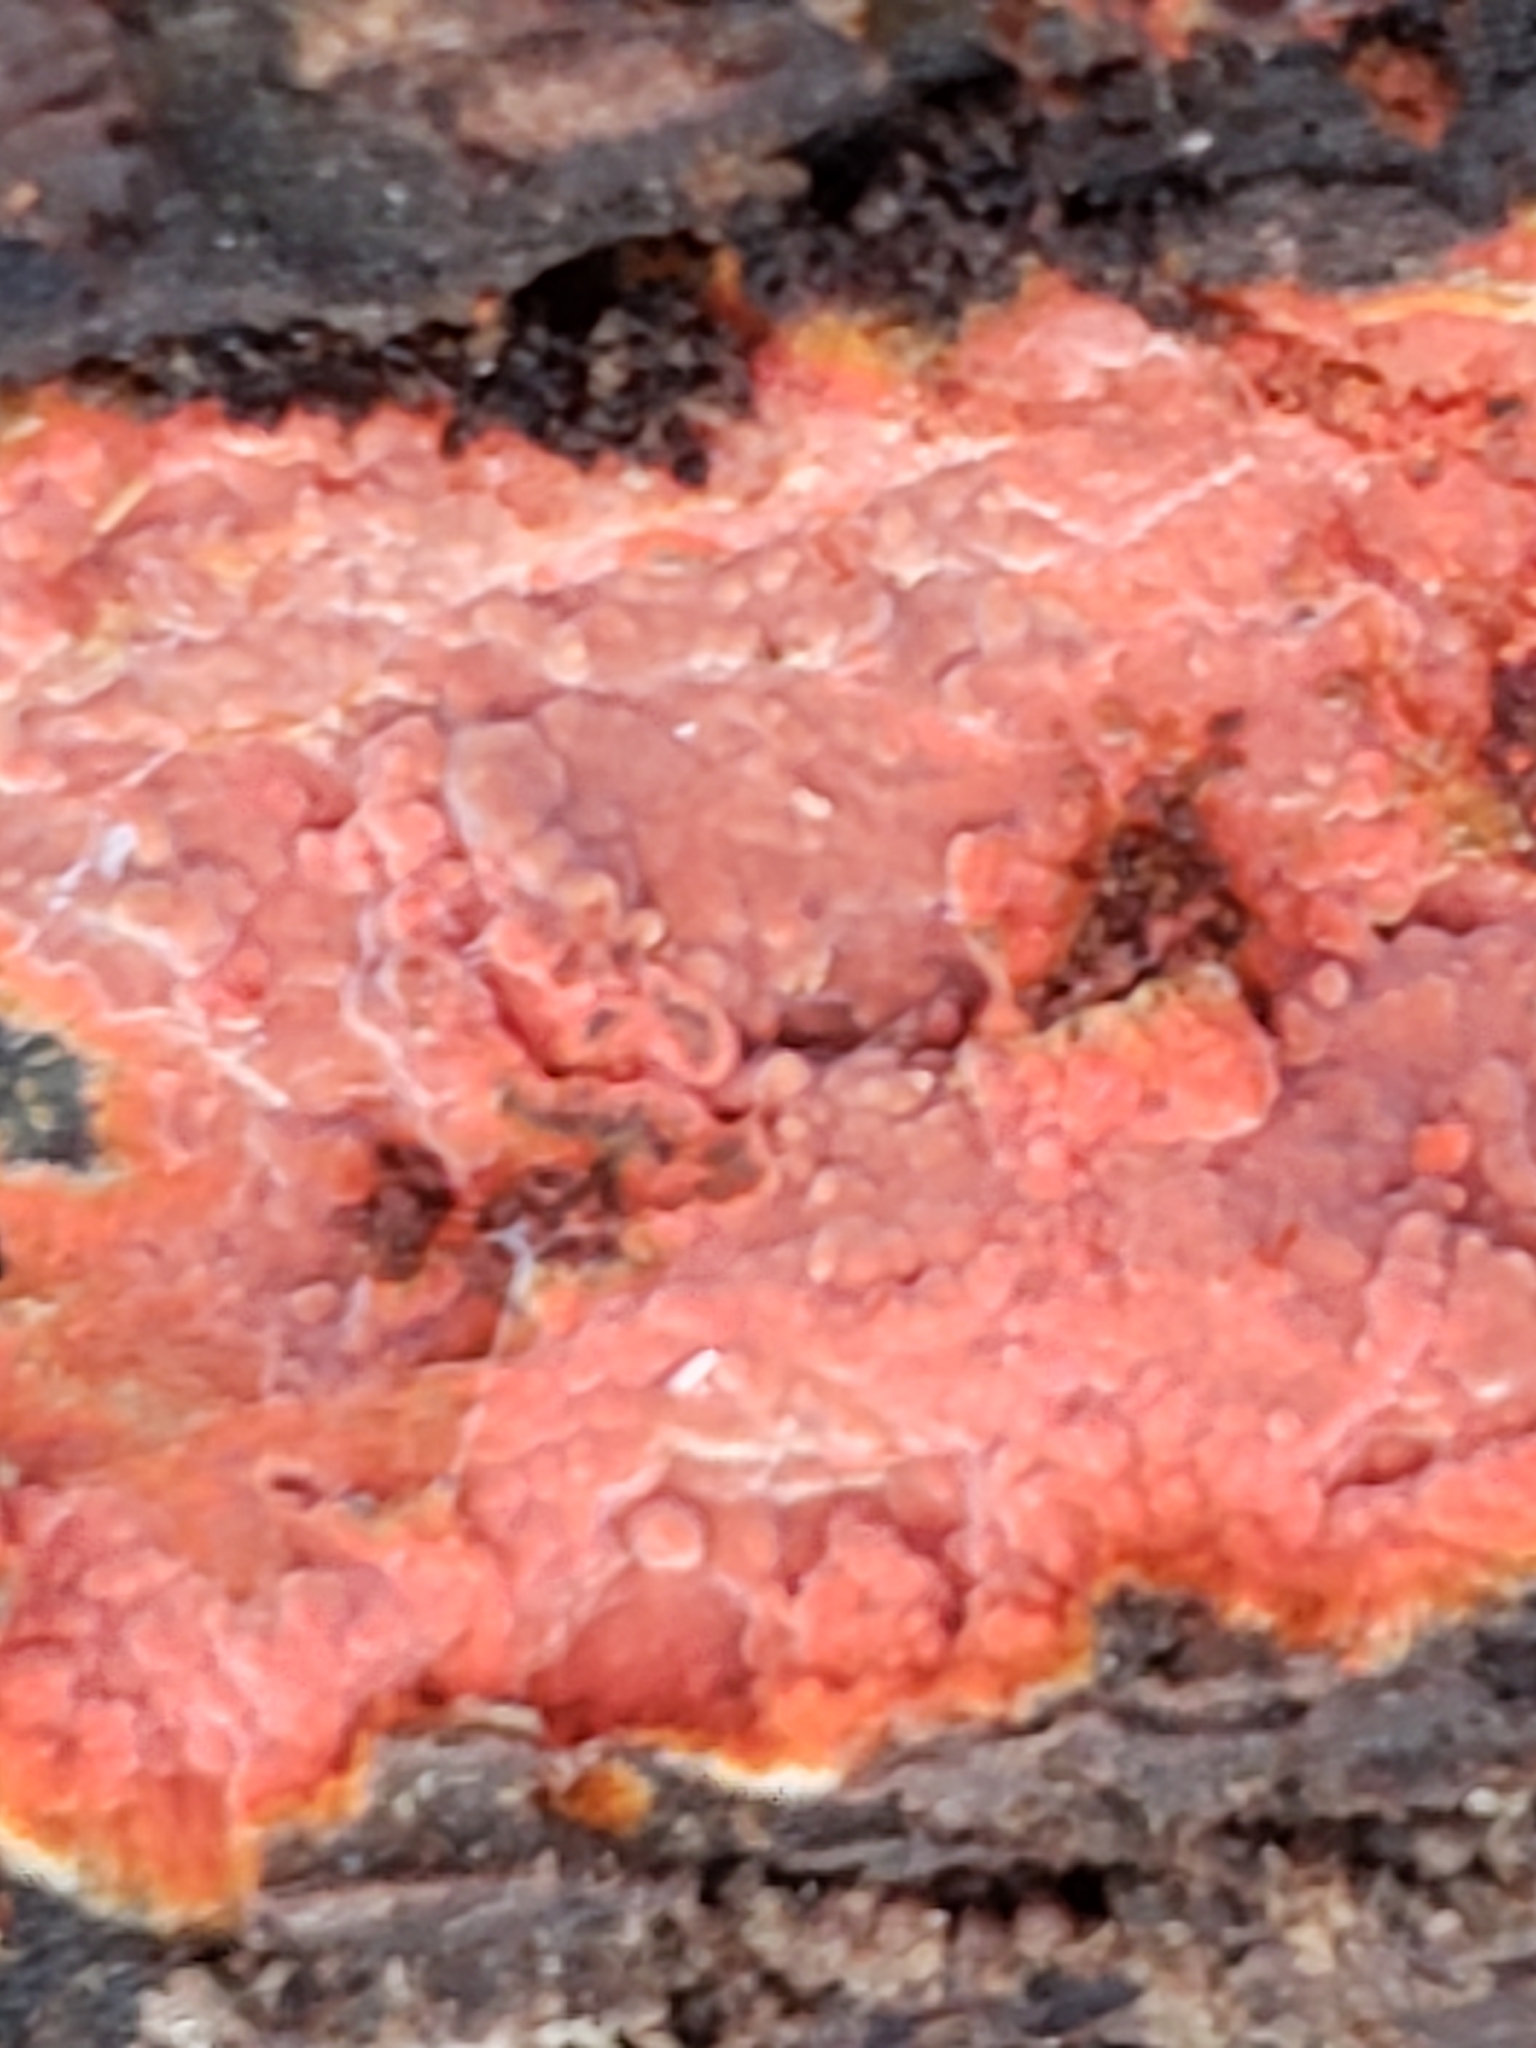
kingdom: Fungi
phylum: Basidiomycota
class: Agaricomycetes
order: Polyporales
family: Meruliaceae
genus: Phlebia
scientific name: Phlebia coccineofulva
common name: Scarlet waxcrust
